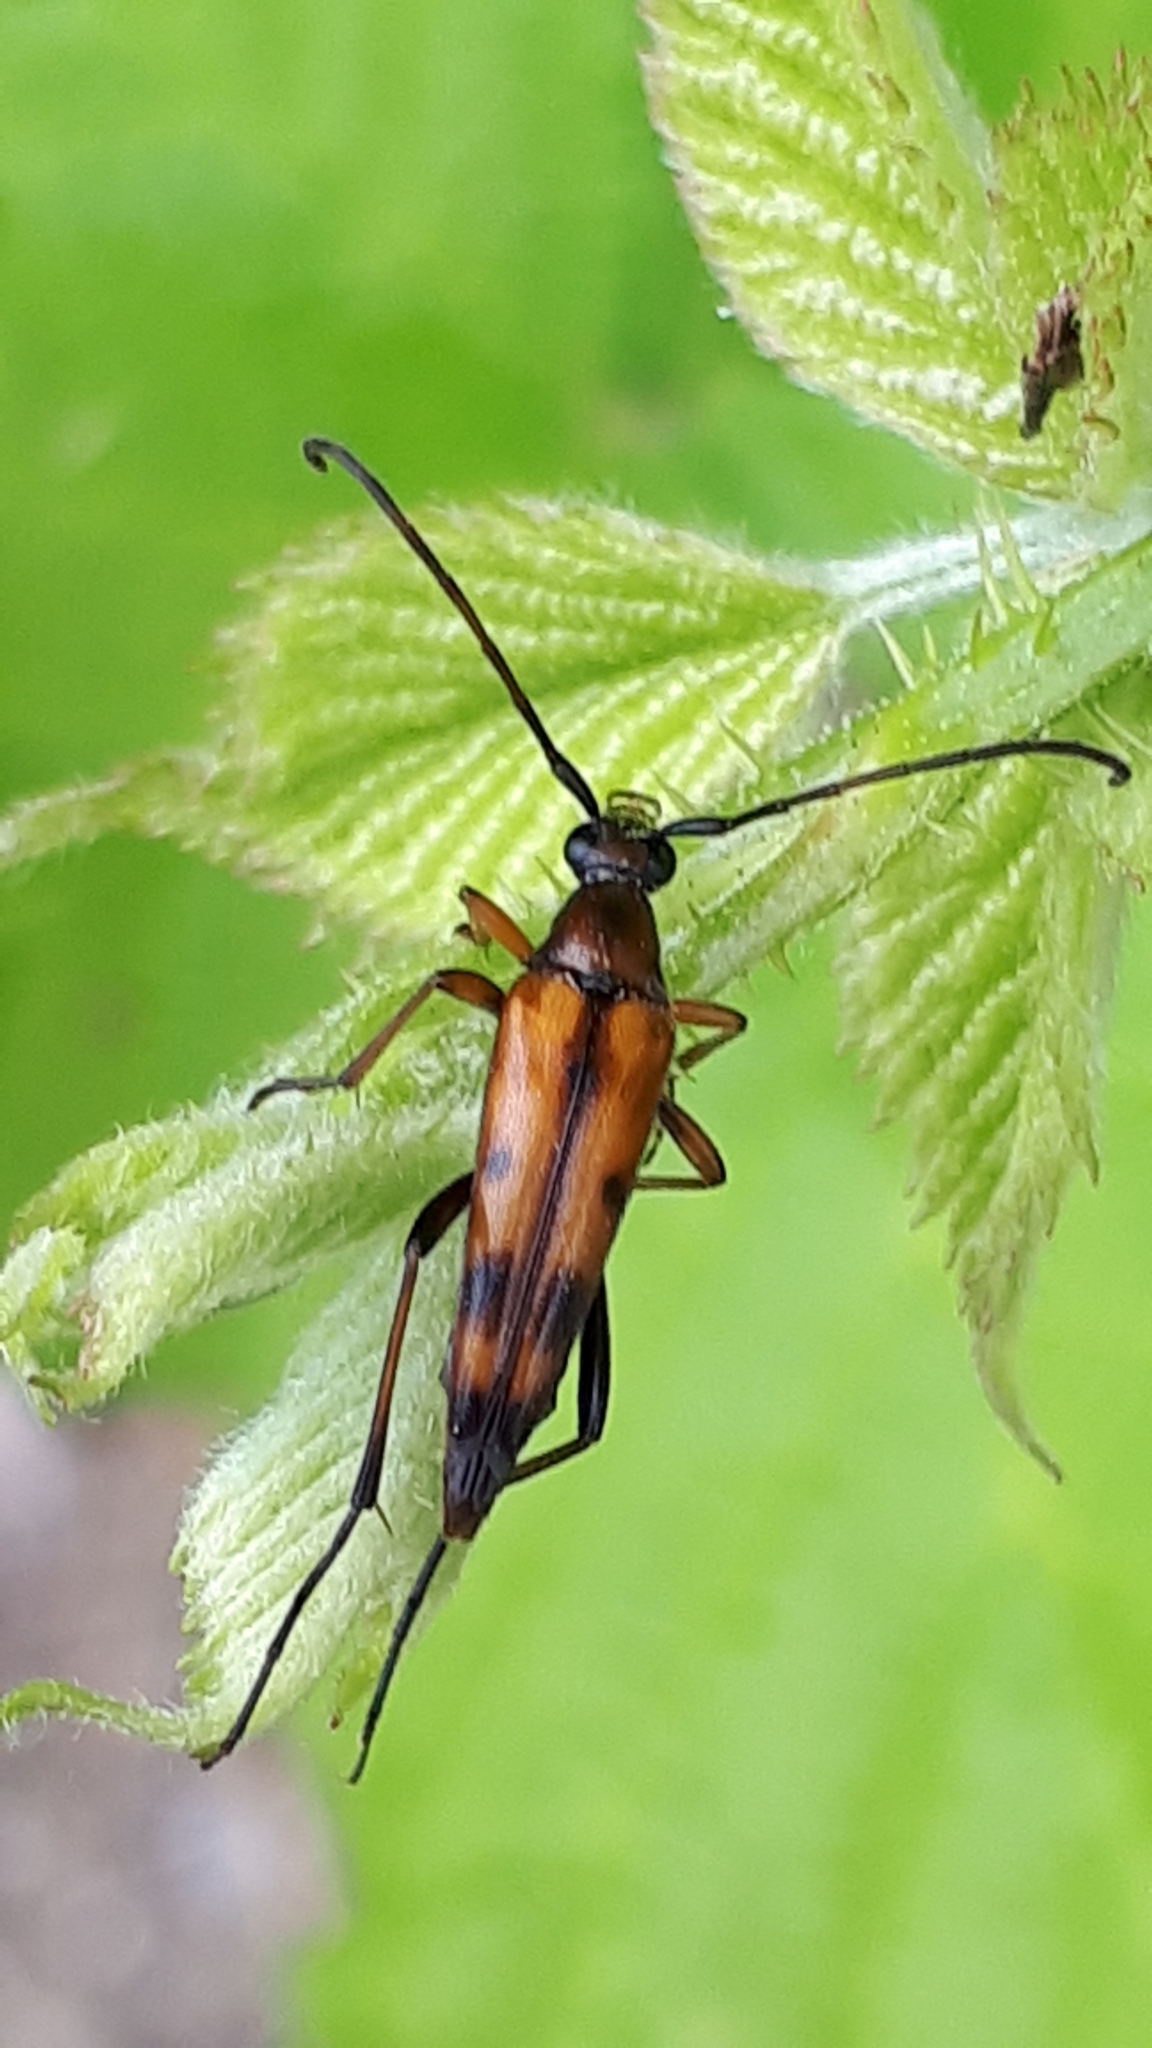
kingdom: Animalia
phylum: Arthropoda
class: Insecta
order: Coleoptera
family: Cerambycidae
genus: Stenurella
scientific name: Stenurella septempunctata
